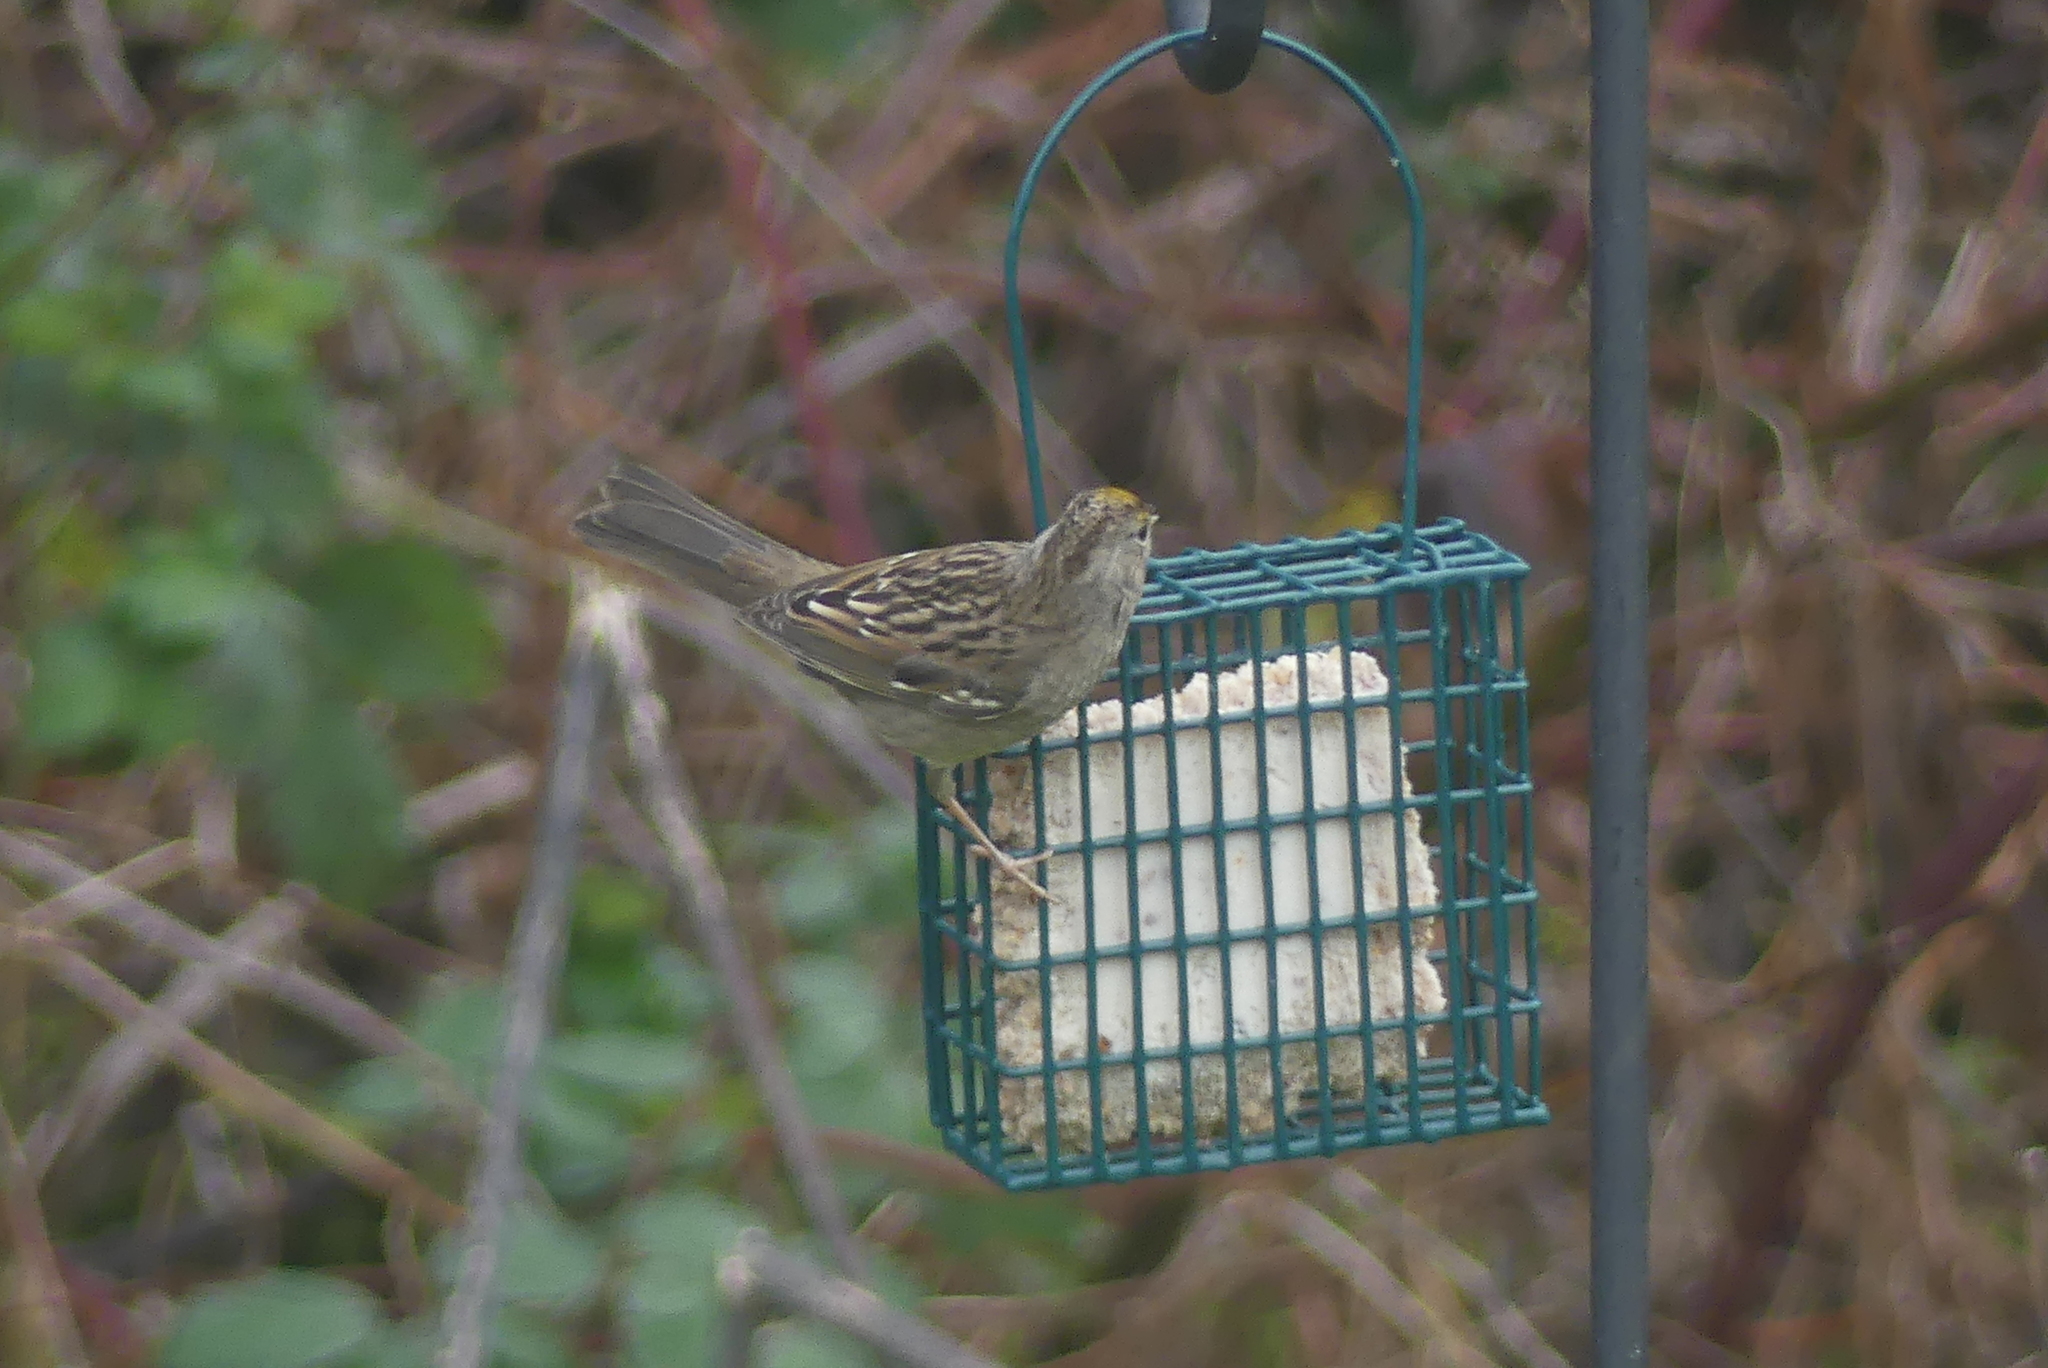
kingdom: Animalia
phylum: Chordata
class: Aves
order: Passeriformes
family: Passerellidae
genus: Zonotrichia
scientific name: Zonotrichia atricapilla
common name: Golden-crowned sparrow
